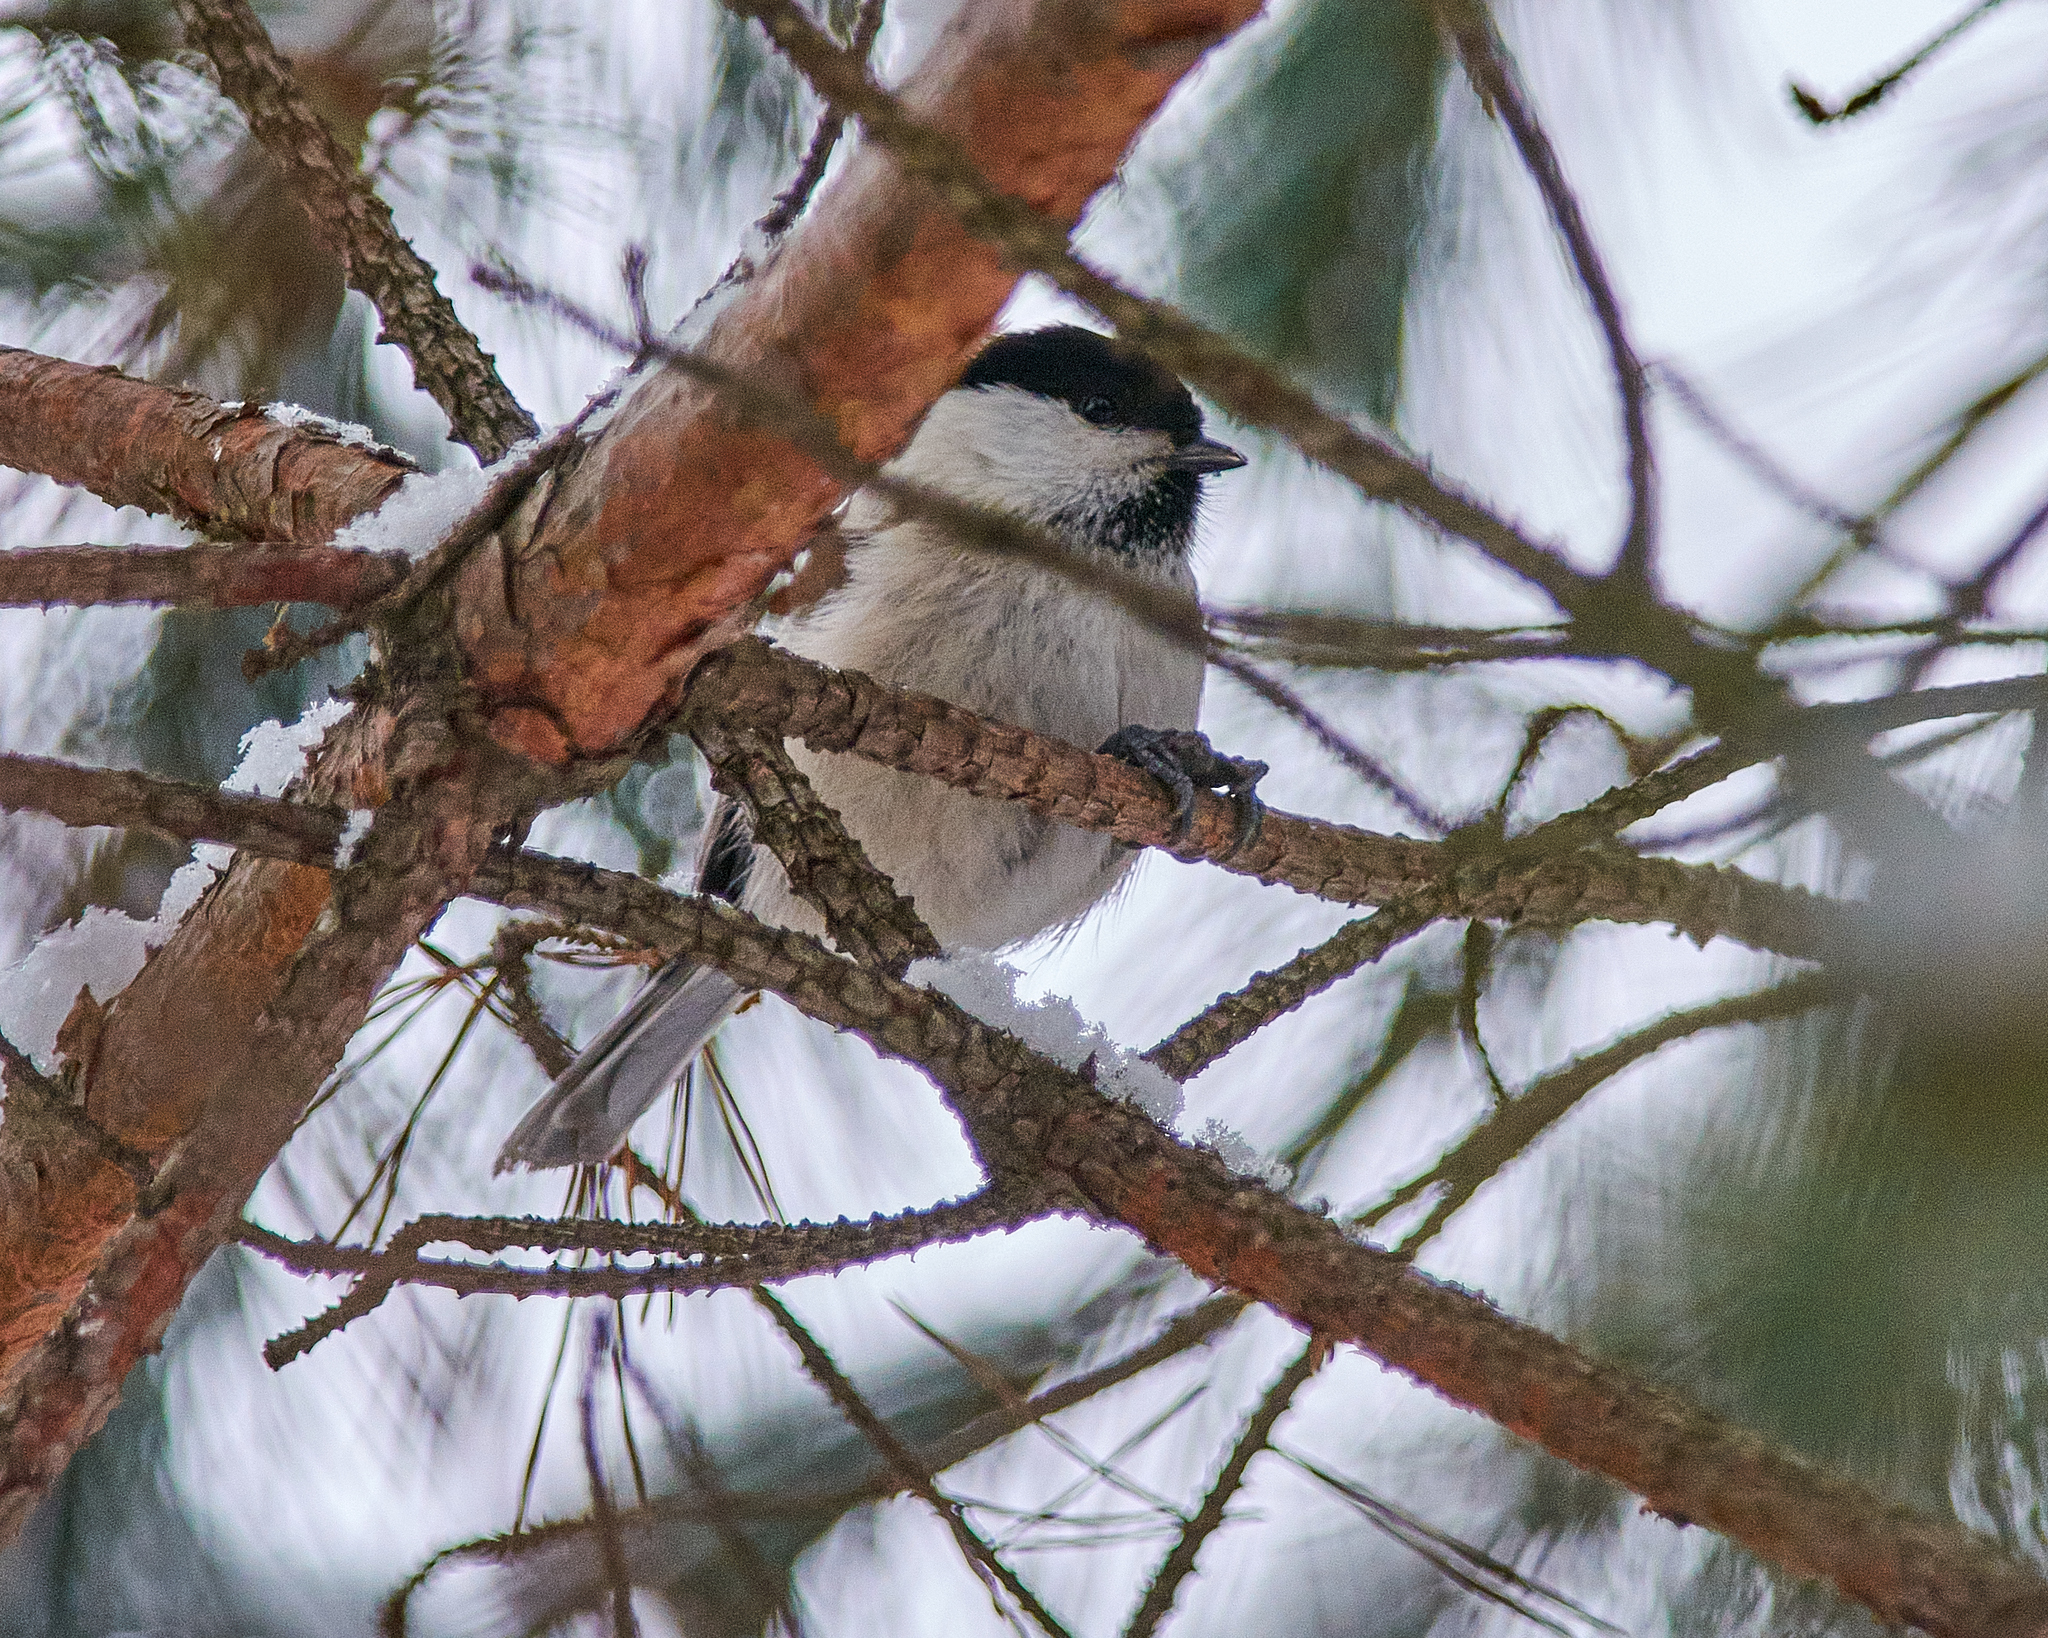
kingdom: Animalia
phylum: Chordata
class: Aves
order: Passeriformes
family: Paridae
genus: Poecile
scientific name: Poecile montanus
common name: Willow tit
